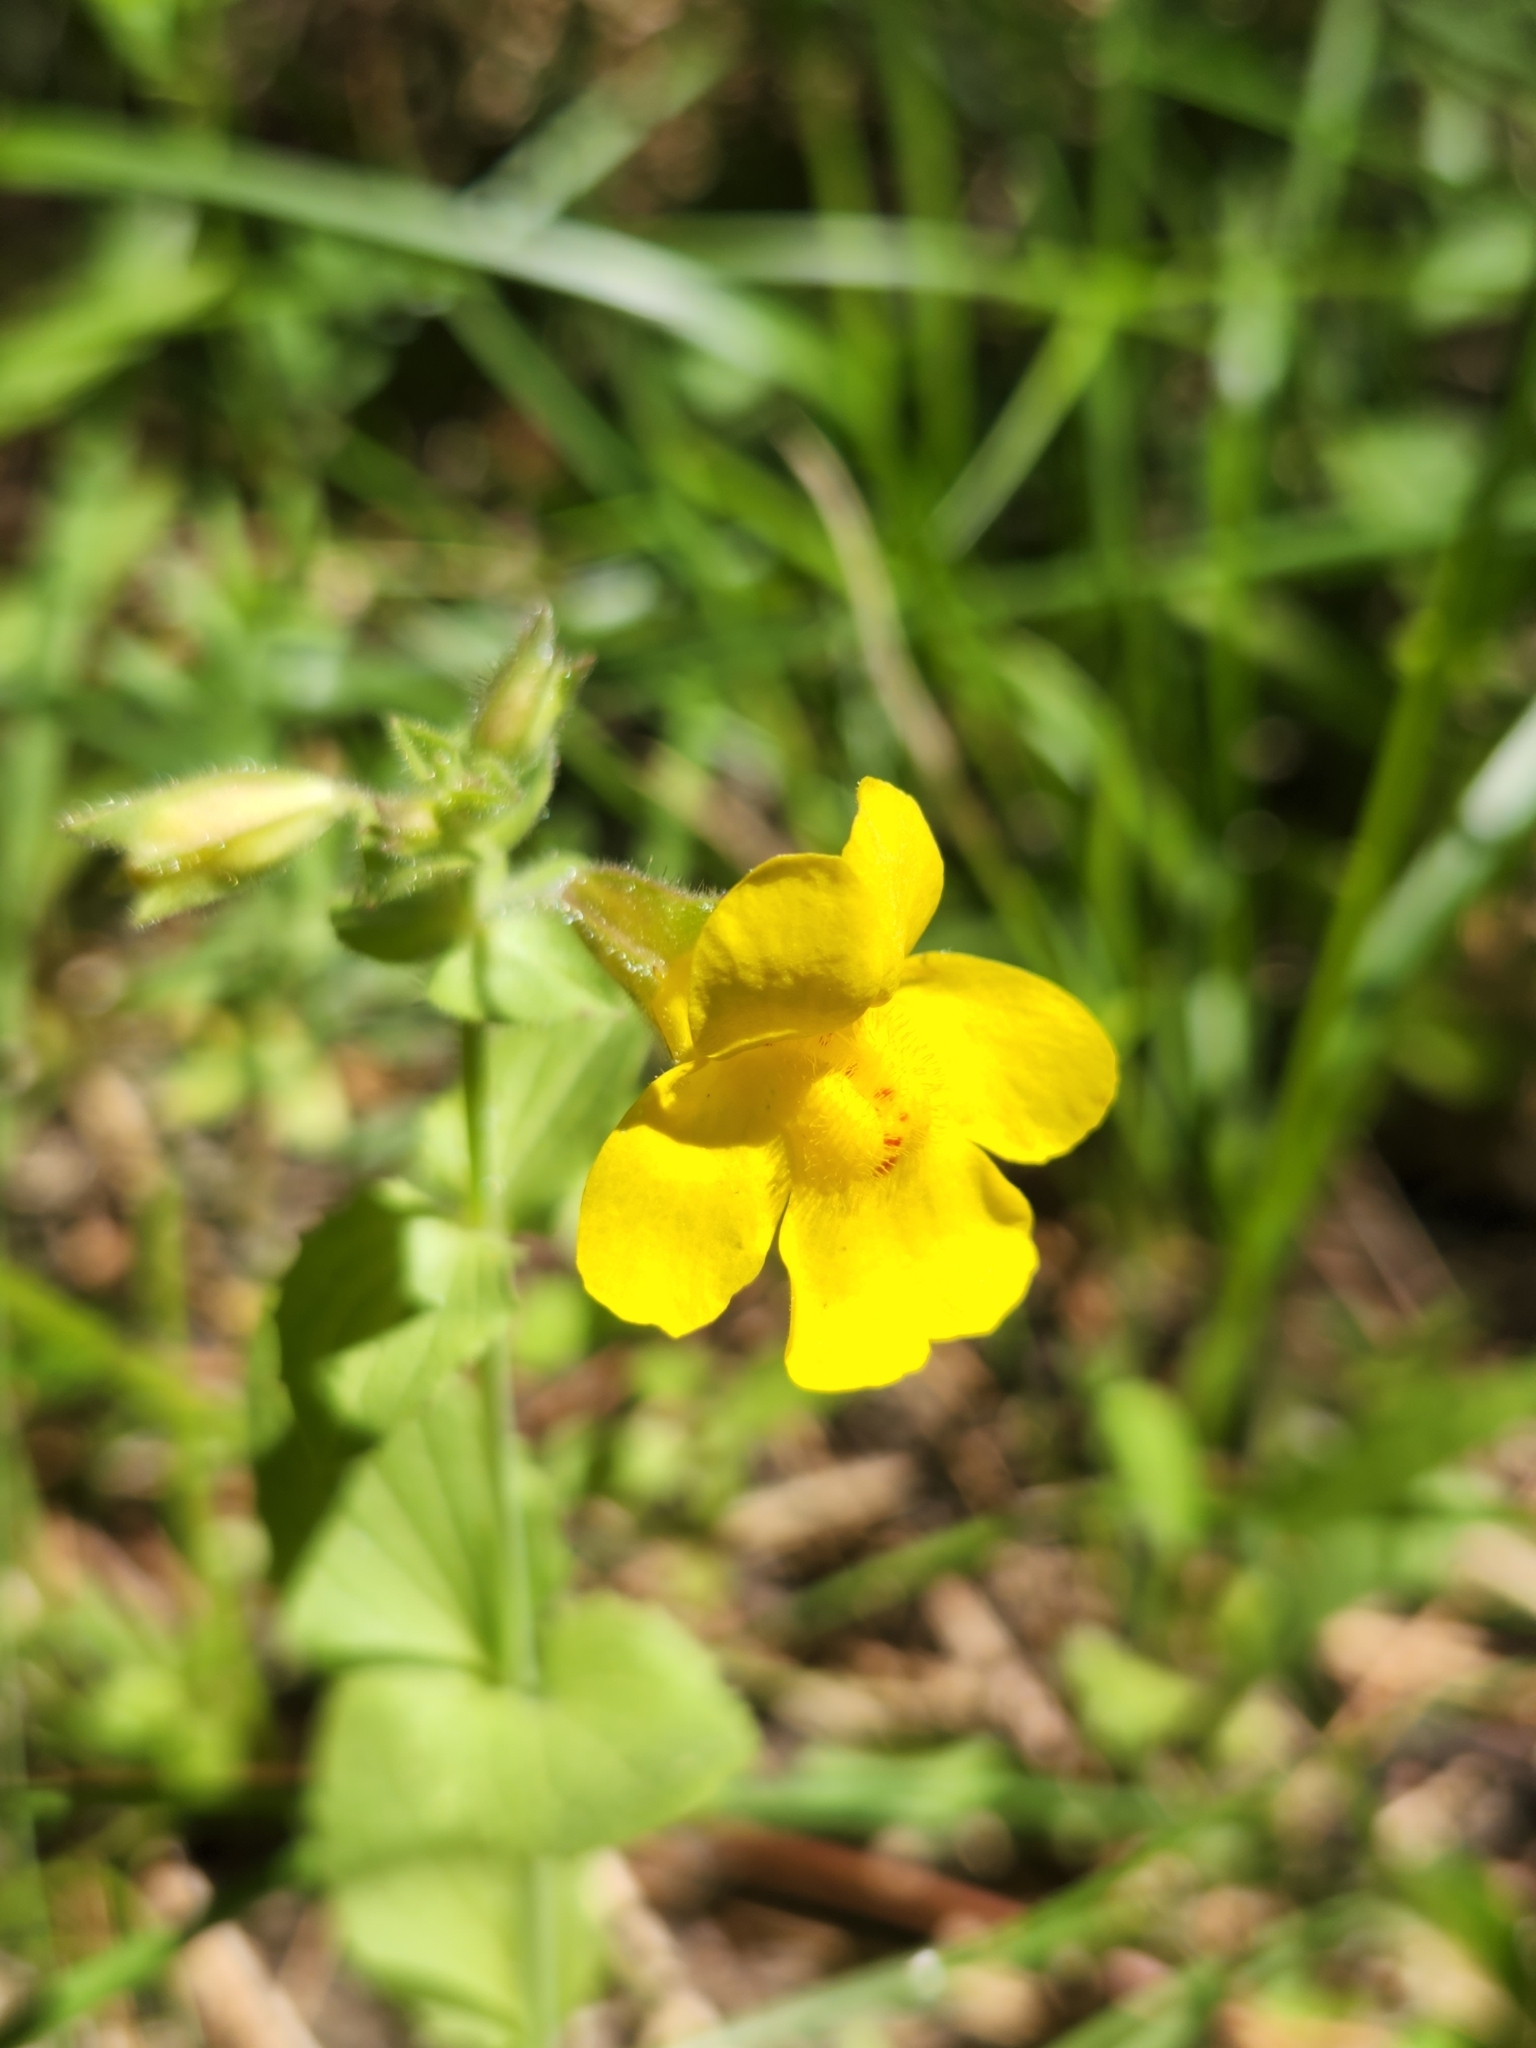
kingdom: Plantae
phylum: Tracheophyta
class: Magnoliopsida
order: Lamiales
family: Phrymaceae
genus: Erythranthe
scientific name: Erythranthe guttata
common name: Monkeyflower
